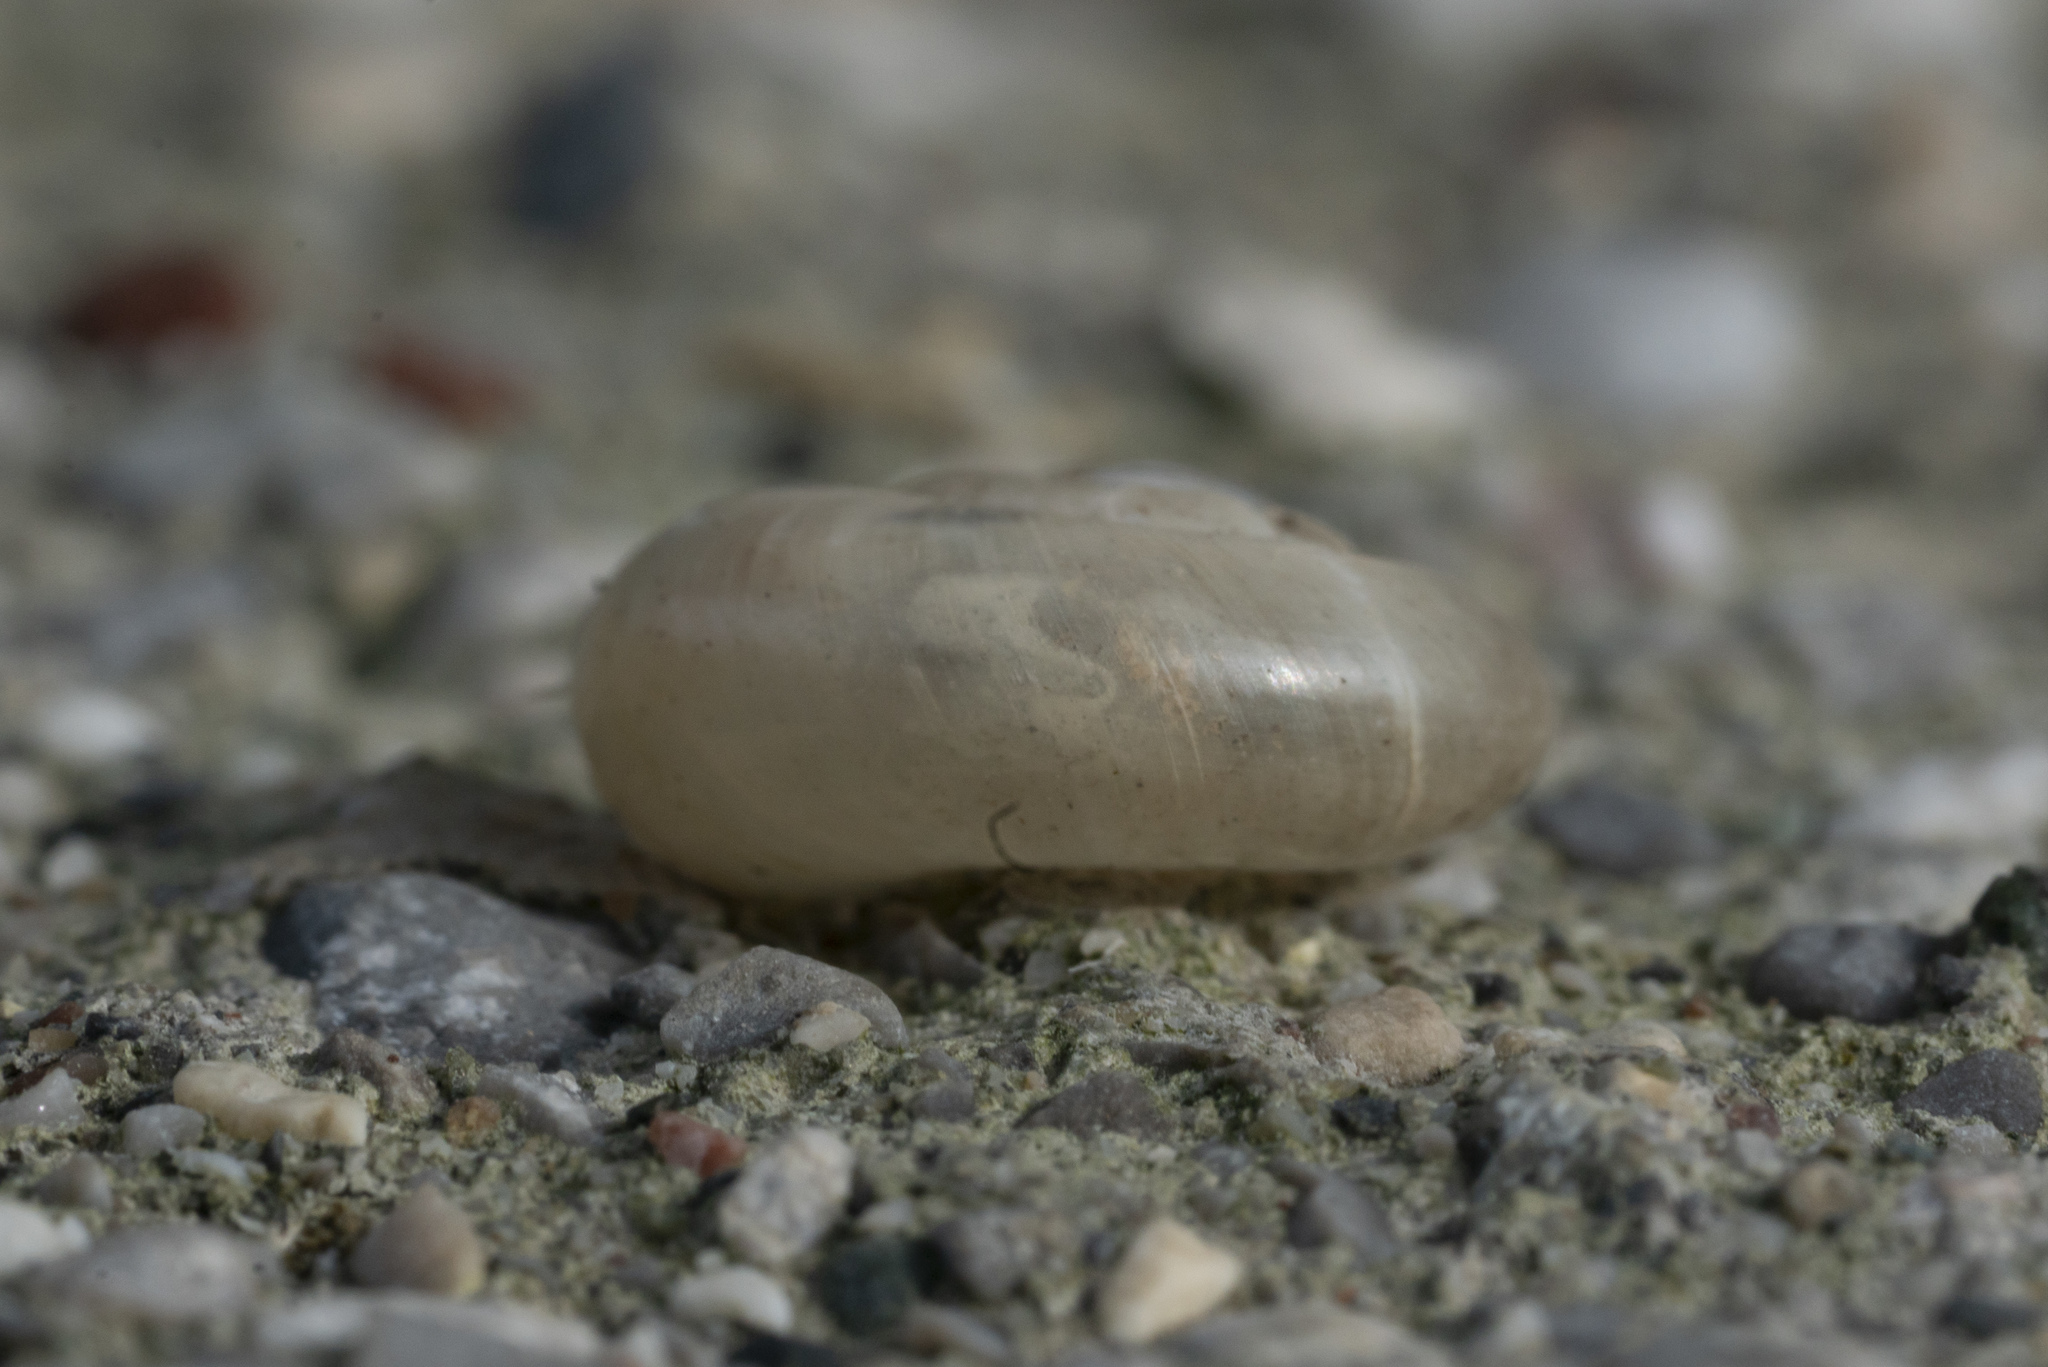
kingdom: Animalia
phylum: Mollusca
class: Gastropoda
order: Stylommatophora
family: Oxychilidae
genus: Eopolita
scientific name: Eopolita protensa
